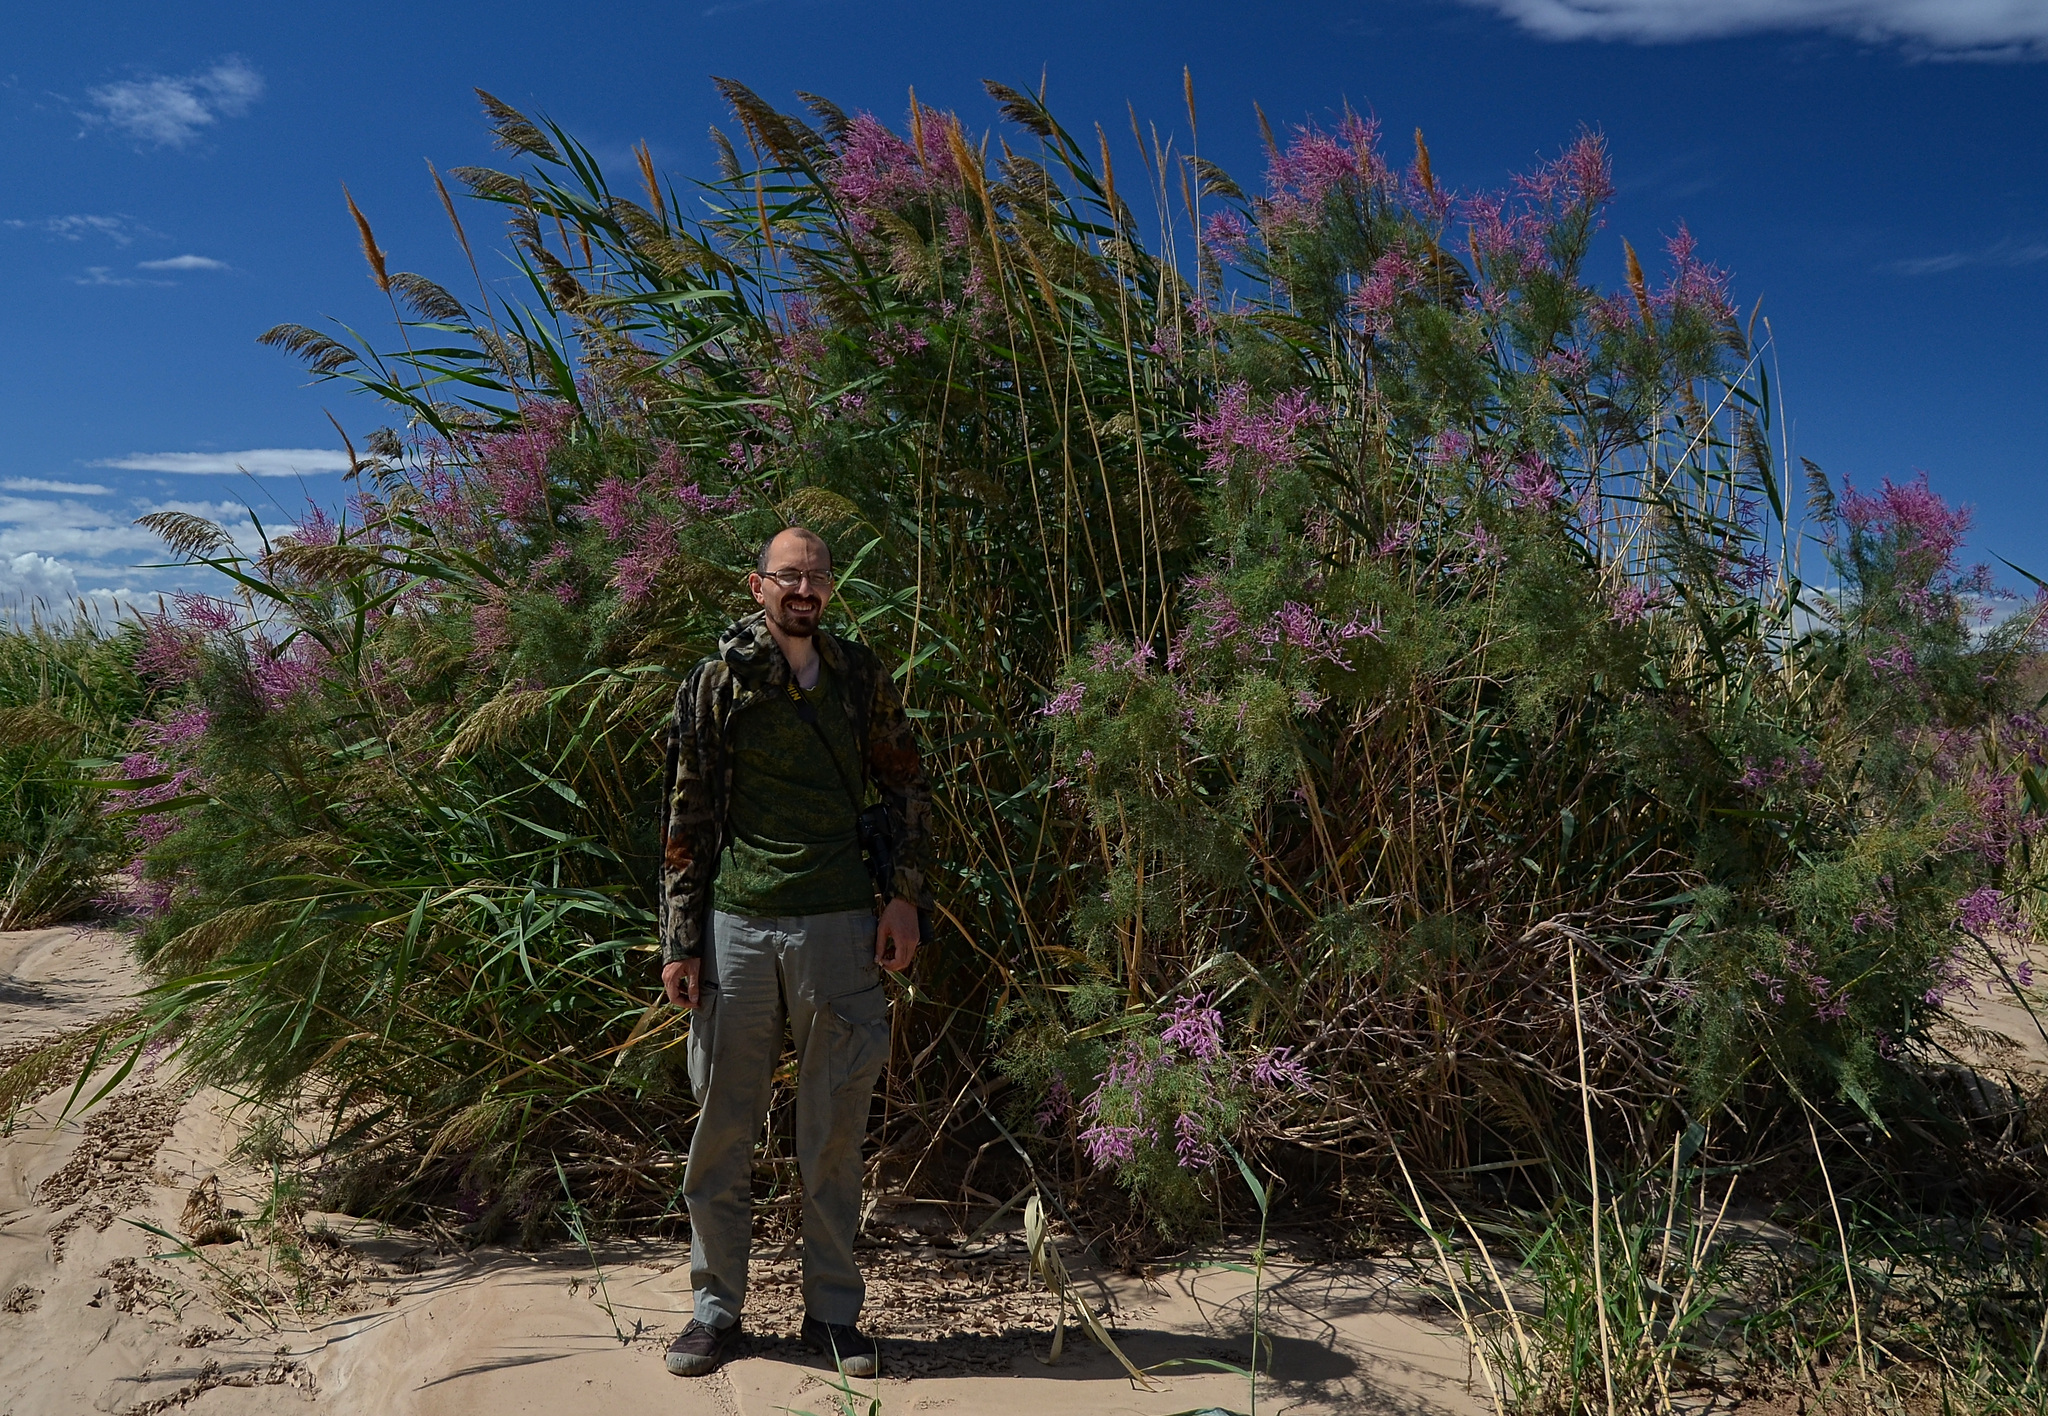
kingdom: Plantae
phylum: Tracheophyta
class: Magnoliopsida
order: Caryophyllales
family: Tamaricaceae
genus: Tamarix
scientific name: Tamarix ramosissima
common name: Pink tamarisk
